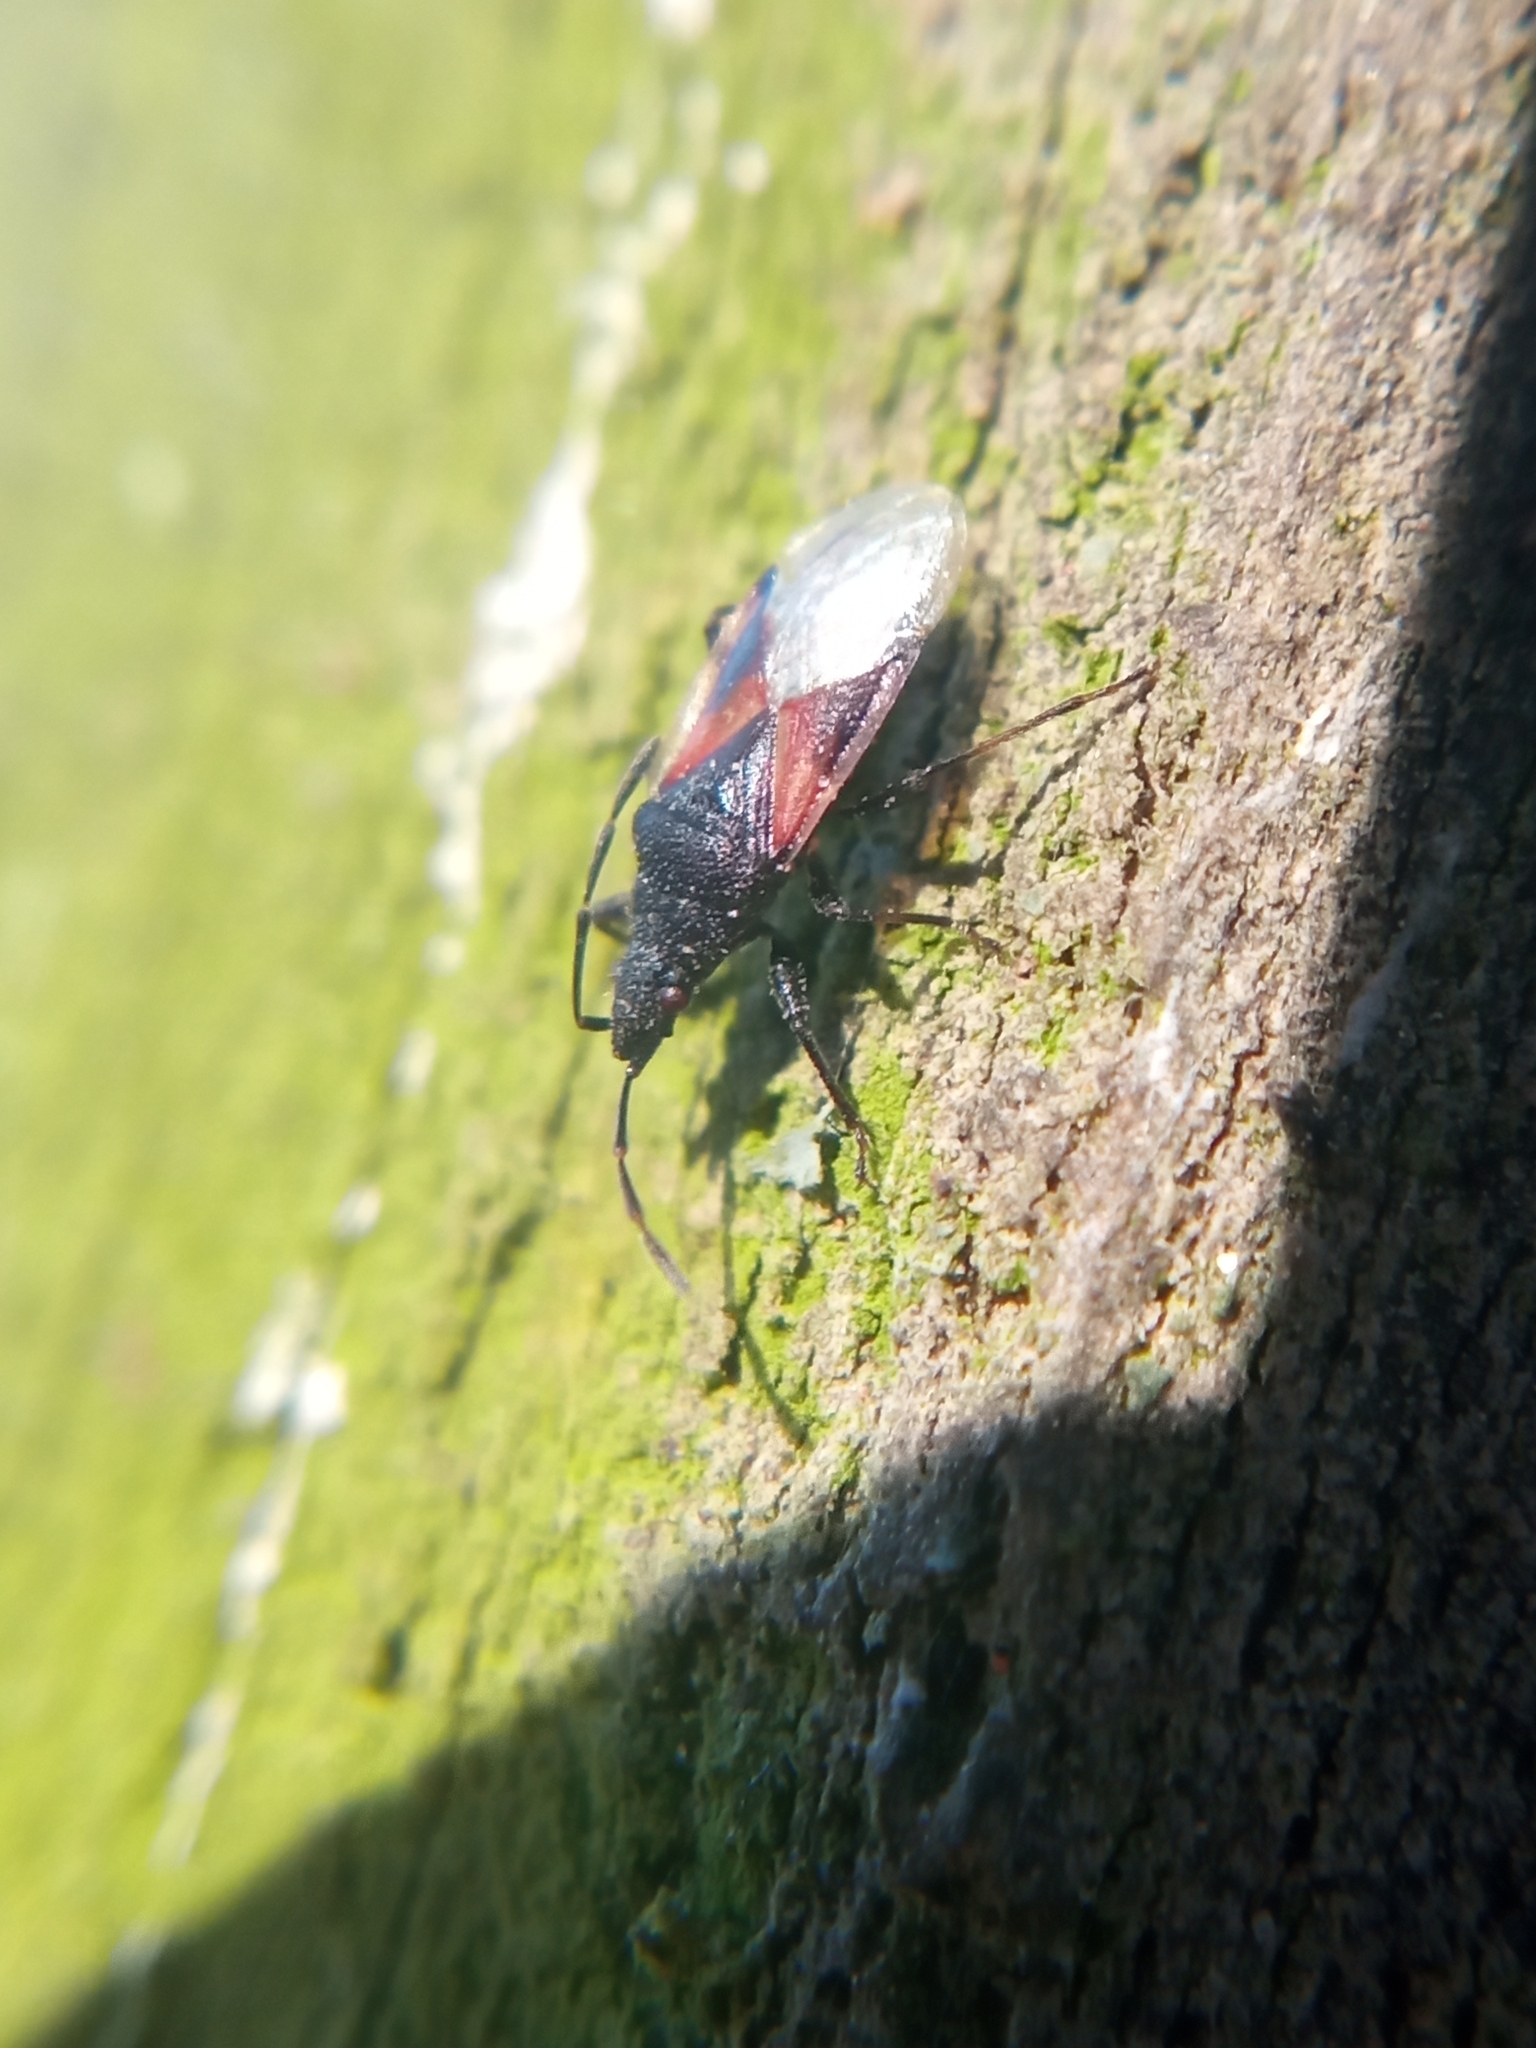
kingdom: Animalia
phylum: Arthropoda
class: Insecta
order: Hemiptera
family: Oxycarenidae
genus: Oxycarenus
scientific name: Oxycarenus lavaterae
